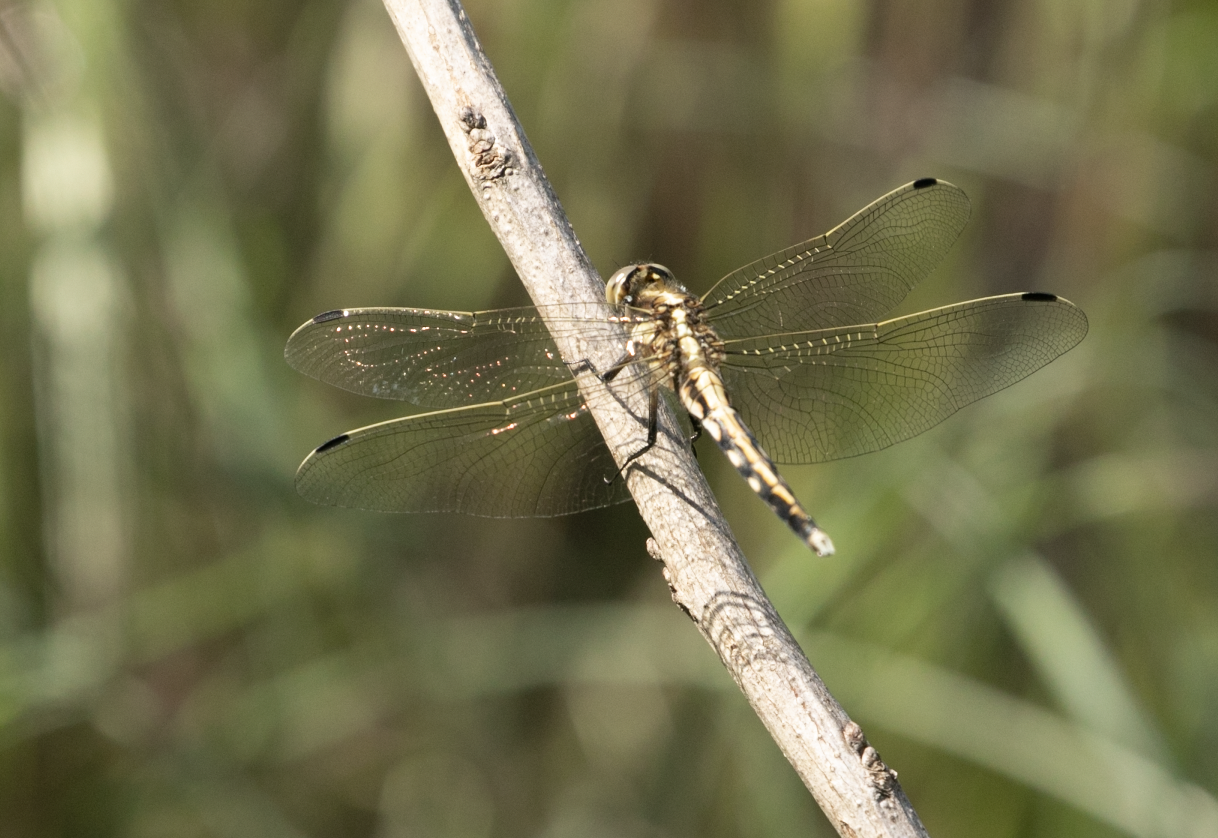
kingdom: Animalia
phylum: Arthropoda
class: Insecta
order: Odonata
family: Libellulidae
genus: Orthetrum
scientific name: Orthetrum albistylum
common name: White-tailed skimmer
